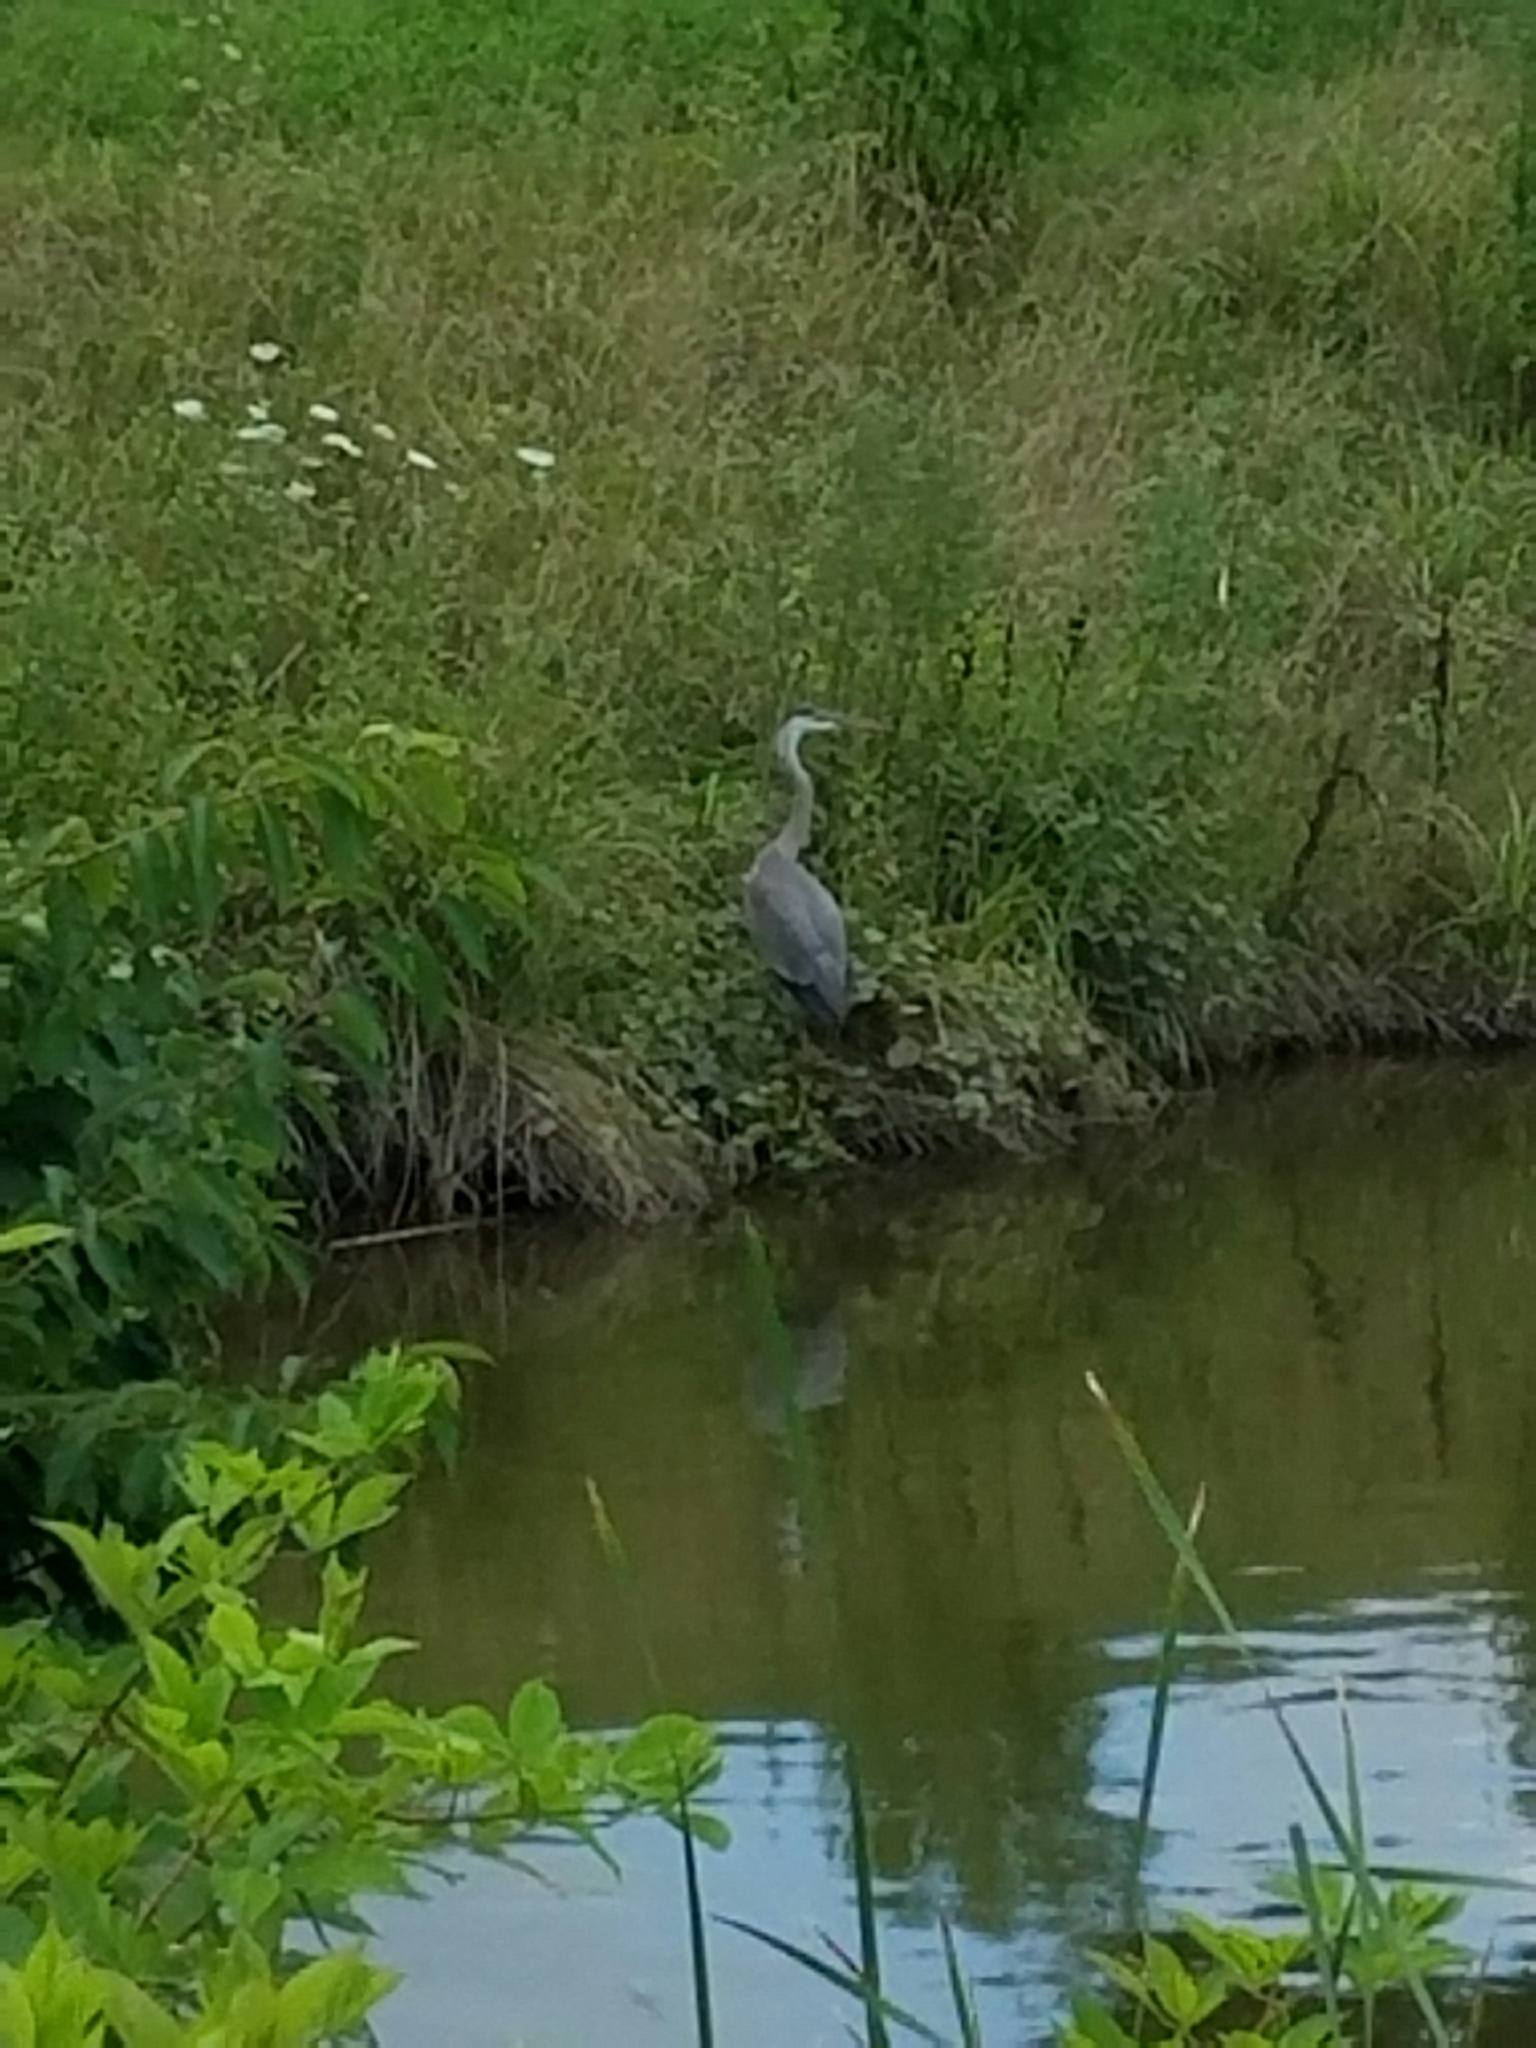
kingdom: Animalia
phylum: Chordata
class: Aves
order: Pelecaniformes
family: Ardeidae
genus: Ardea
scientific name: Ardea herodias
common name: Great blue heron
